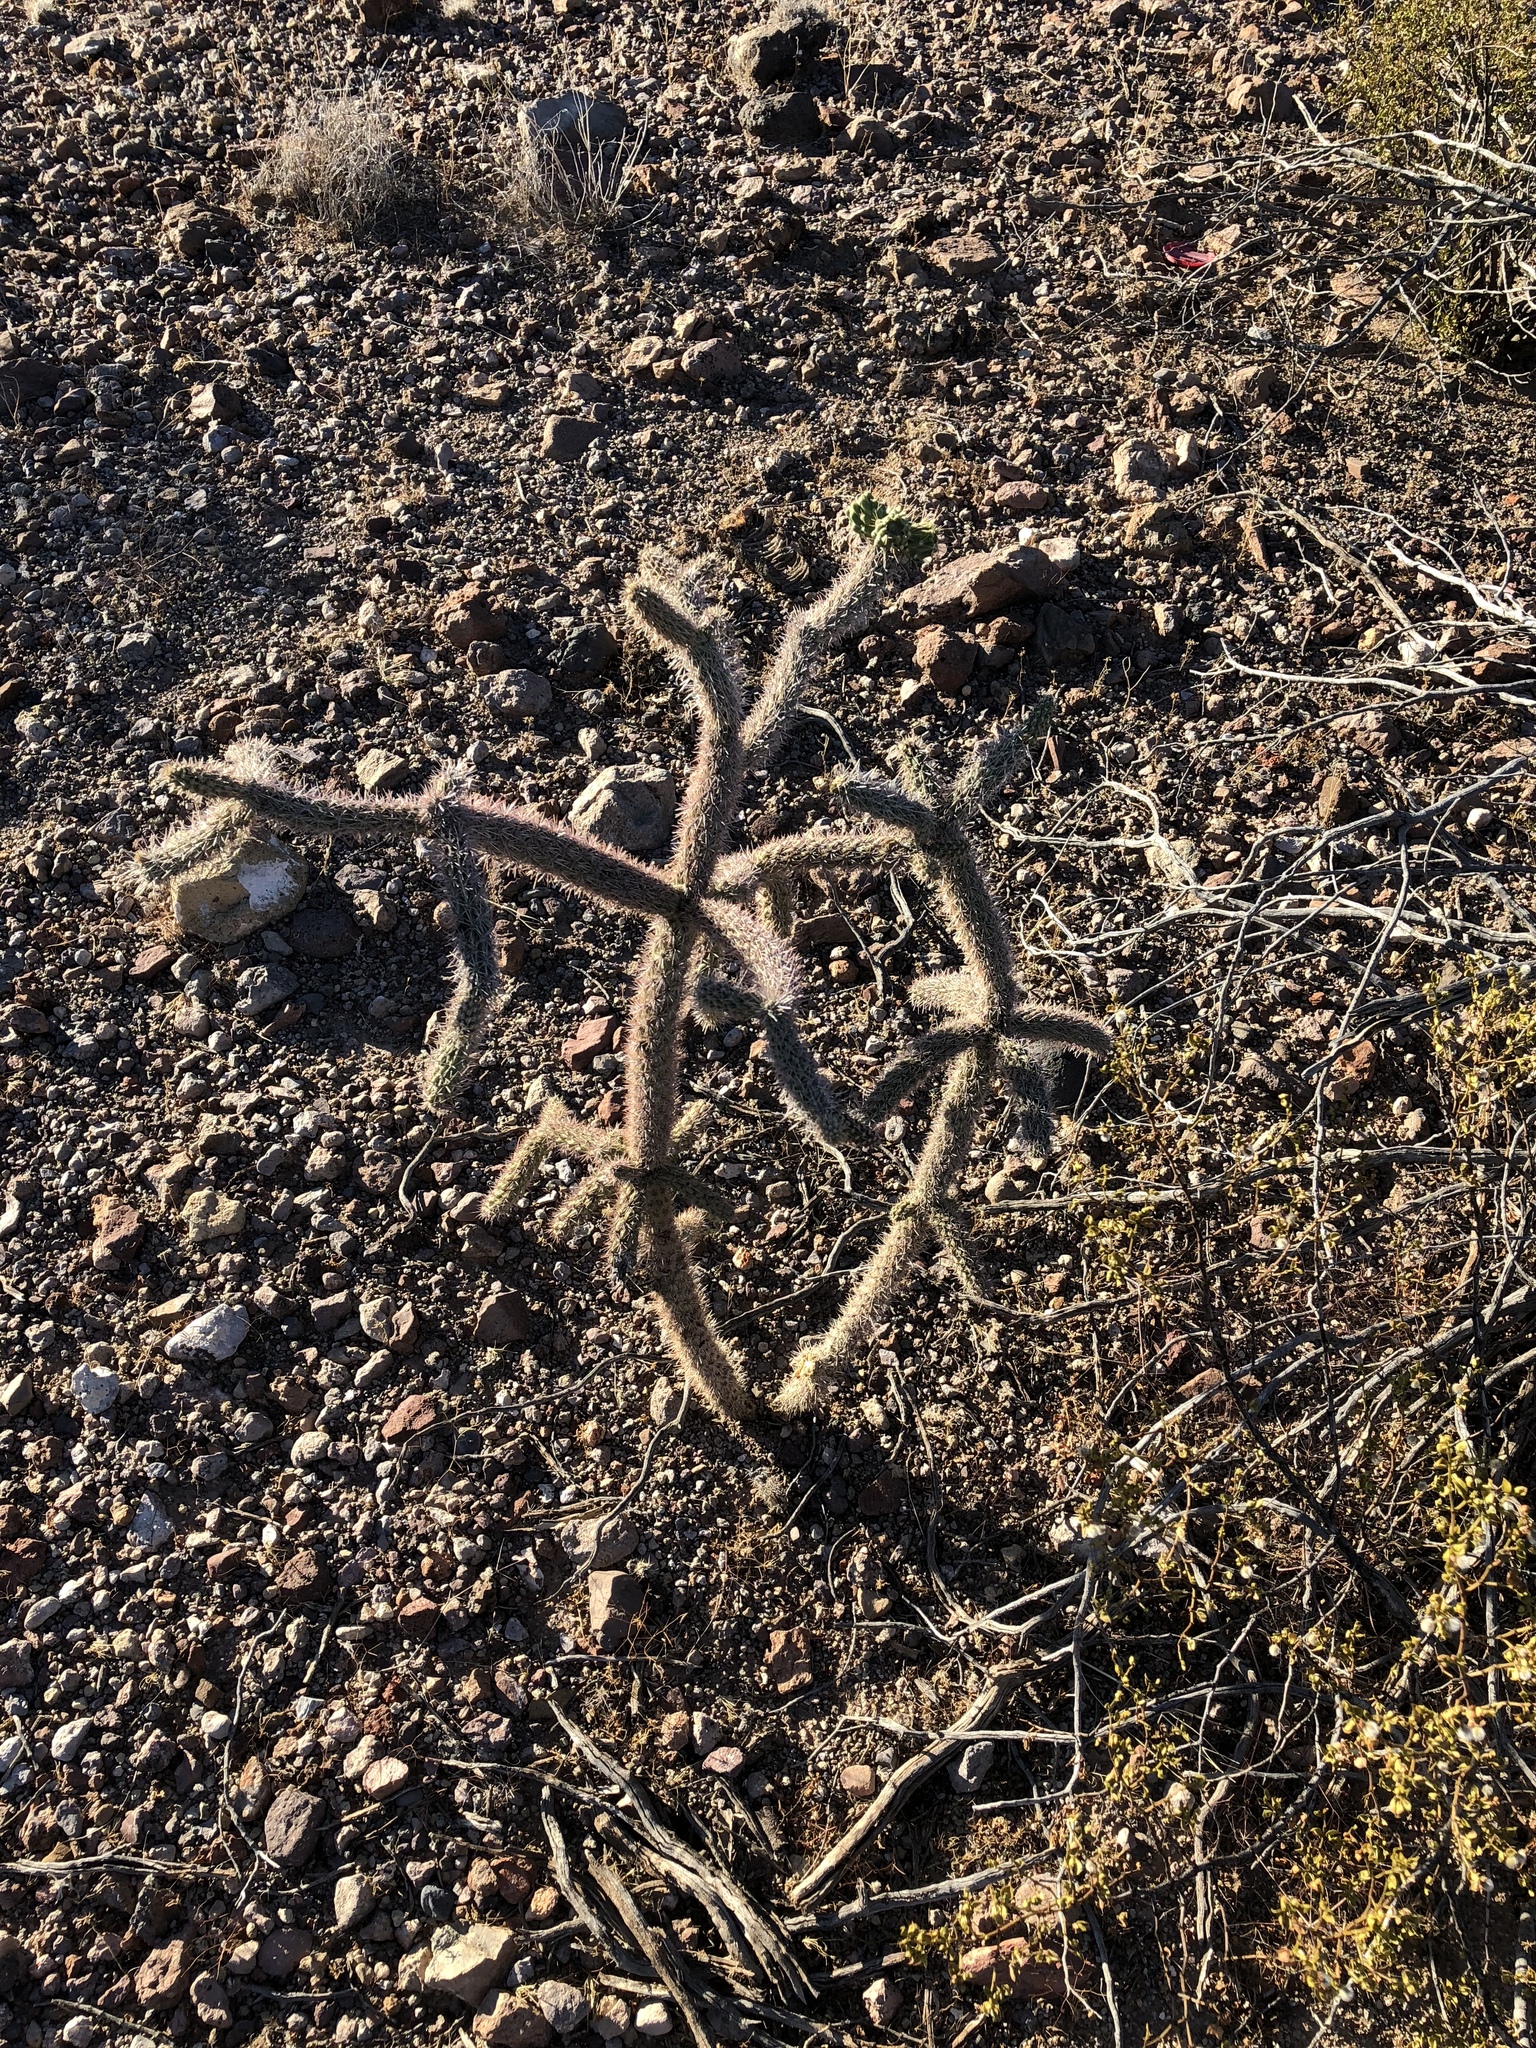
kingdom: Plantae
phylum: Tracheophyta
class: Magnoliopsida
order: Caryophyllales
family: Cactaceae
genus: Cylindropuntia
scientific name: Cylindropuntia imbricata
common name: Candelabrum cactus
